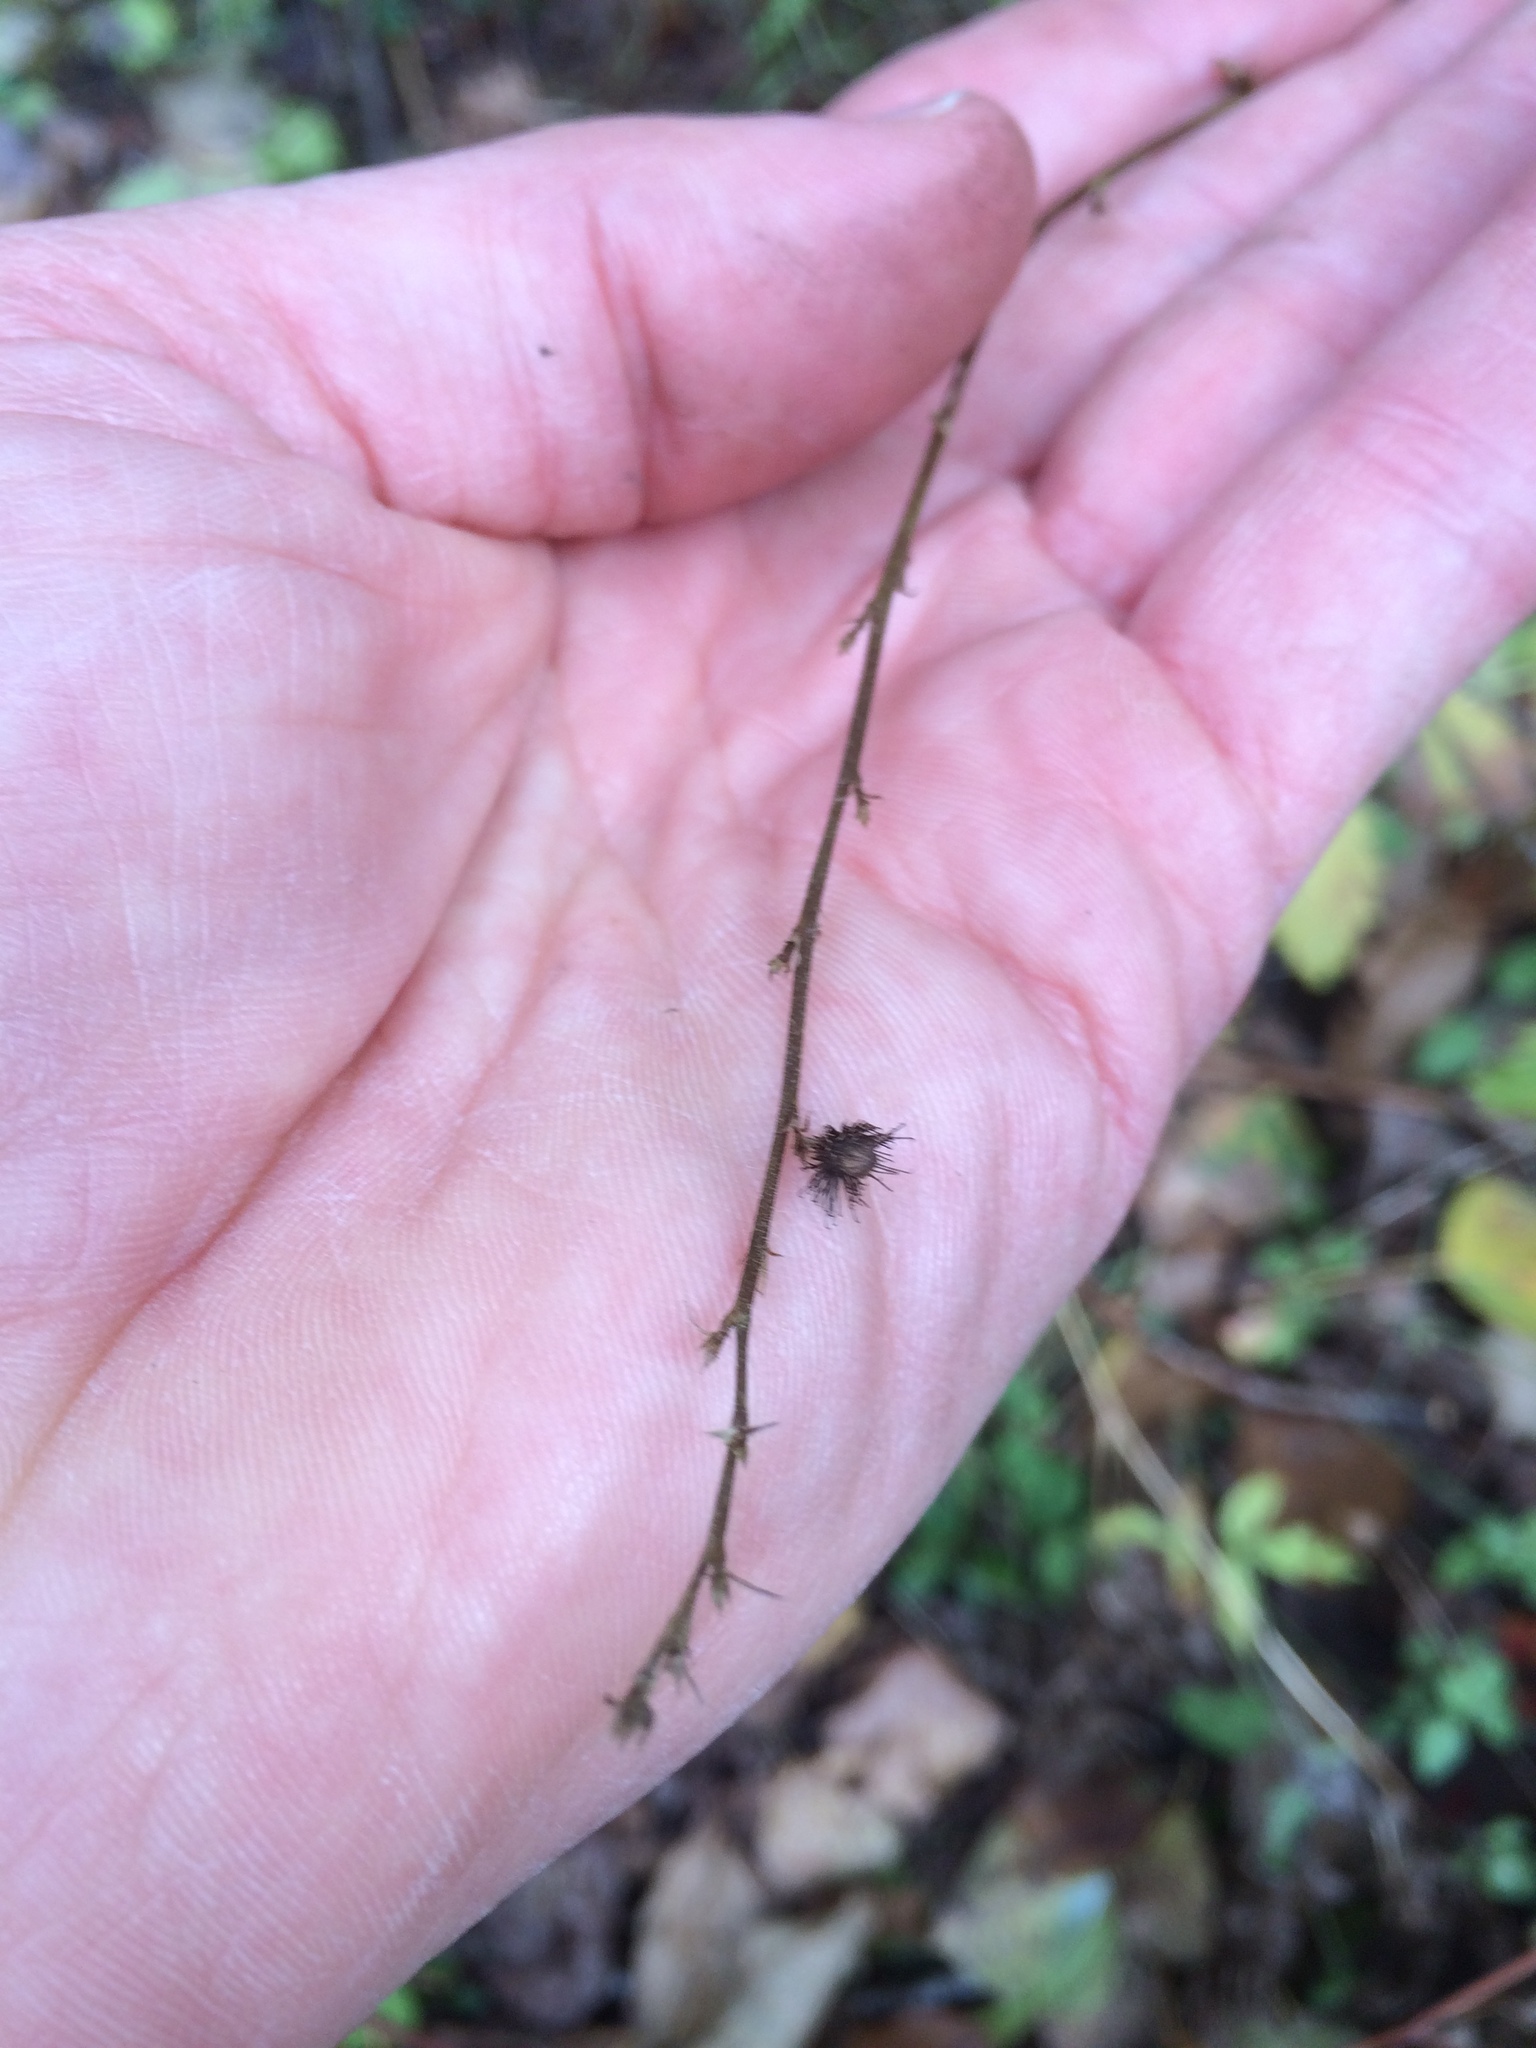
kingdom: Plantae
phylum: Tracheophyta
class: Magnoliopsida
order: Rosales
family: Rosaceae
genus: Agrimonia
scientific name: Agrimonia gryposepala
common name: Common agrimony
